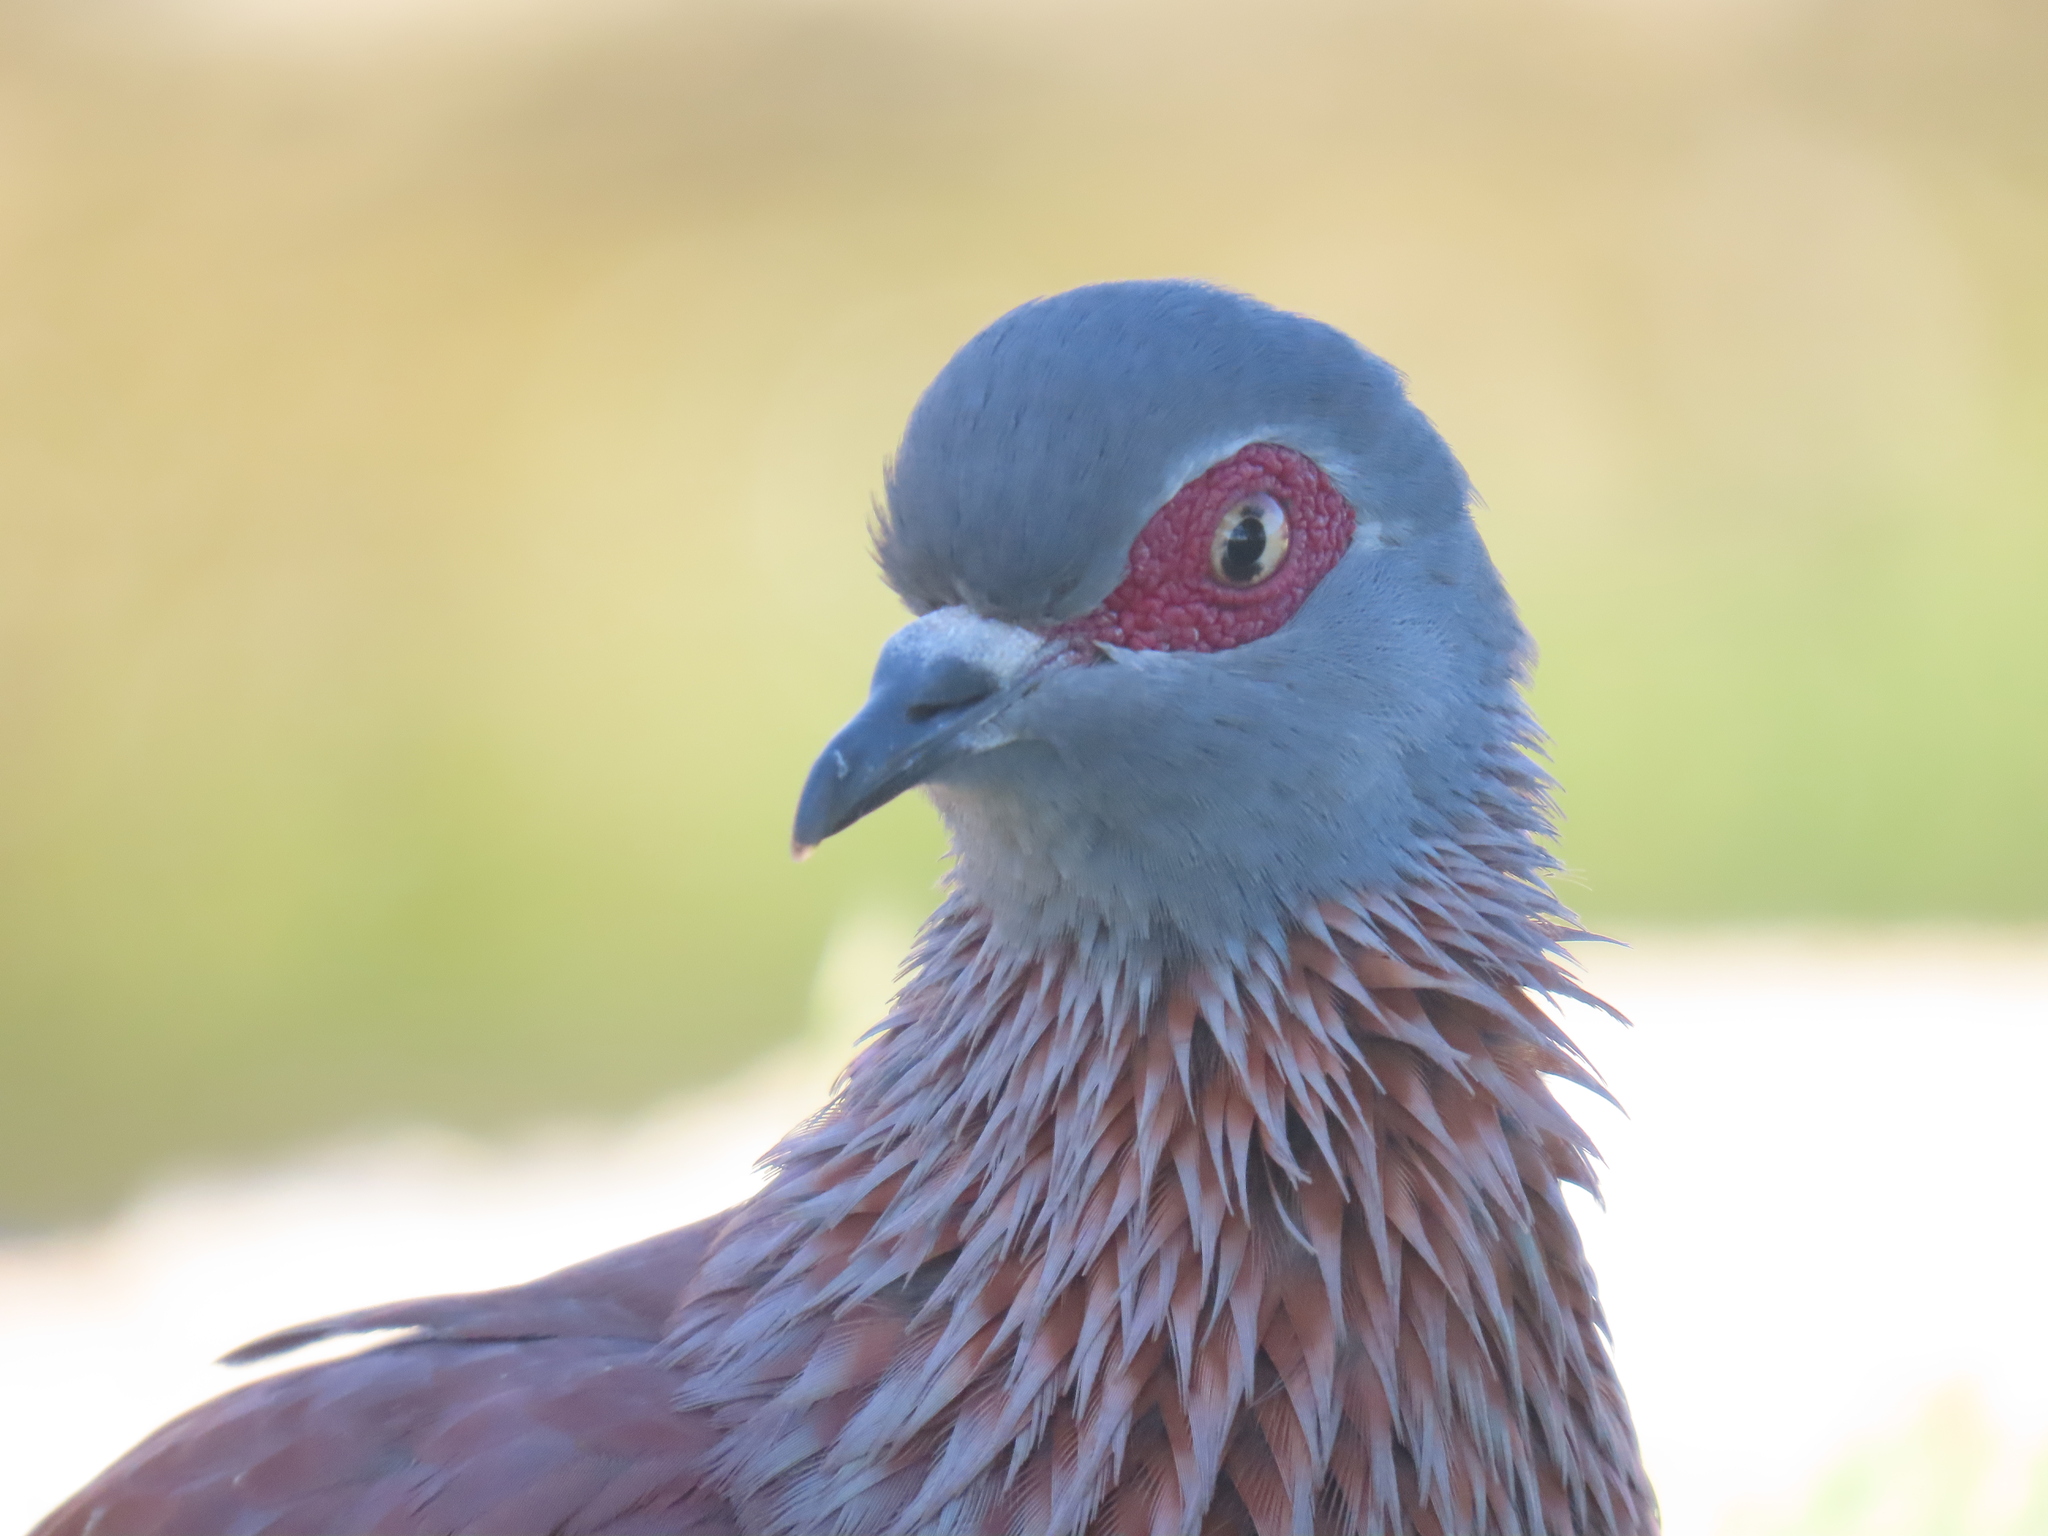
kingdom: Animalia
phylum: Chordata
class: Aves
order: Columbiformes
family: Columbidae
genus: Columba
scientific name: Columba guinea
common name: Speckled pigeon
